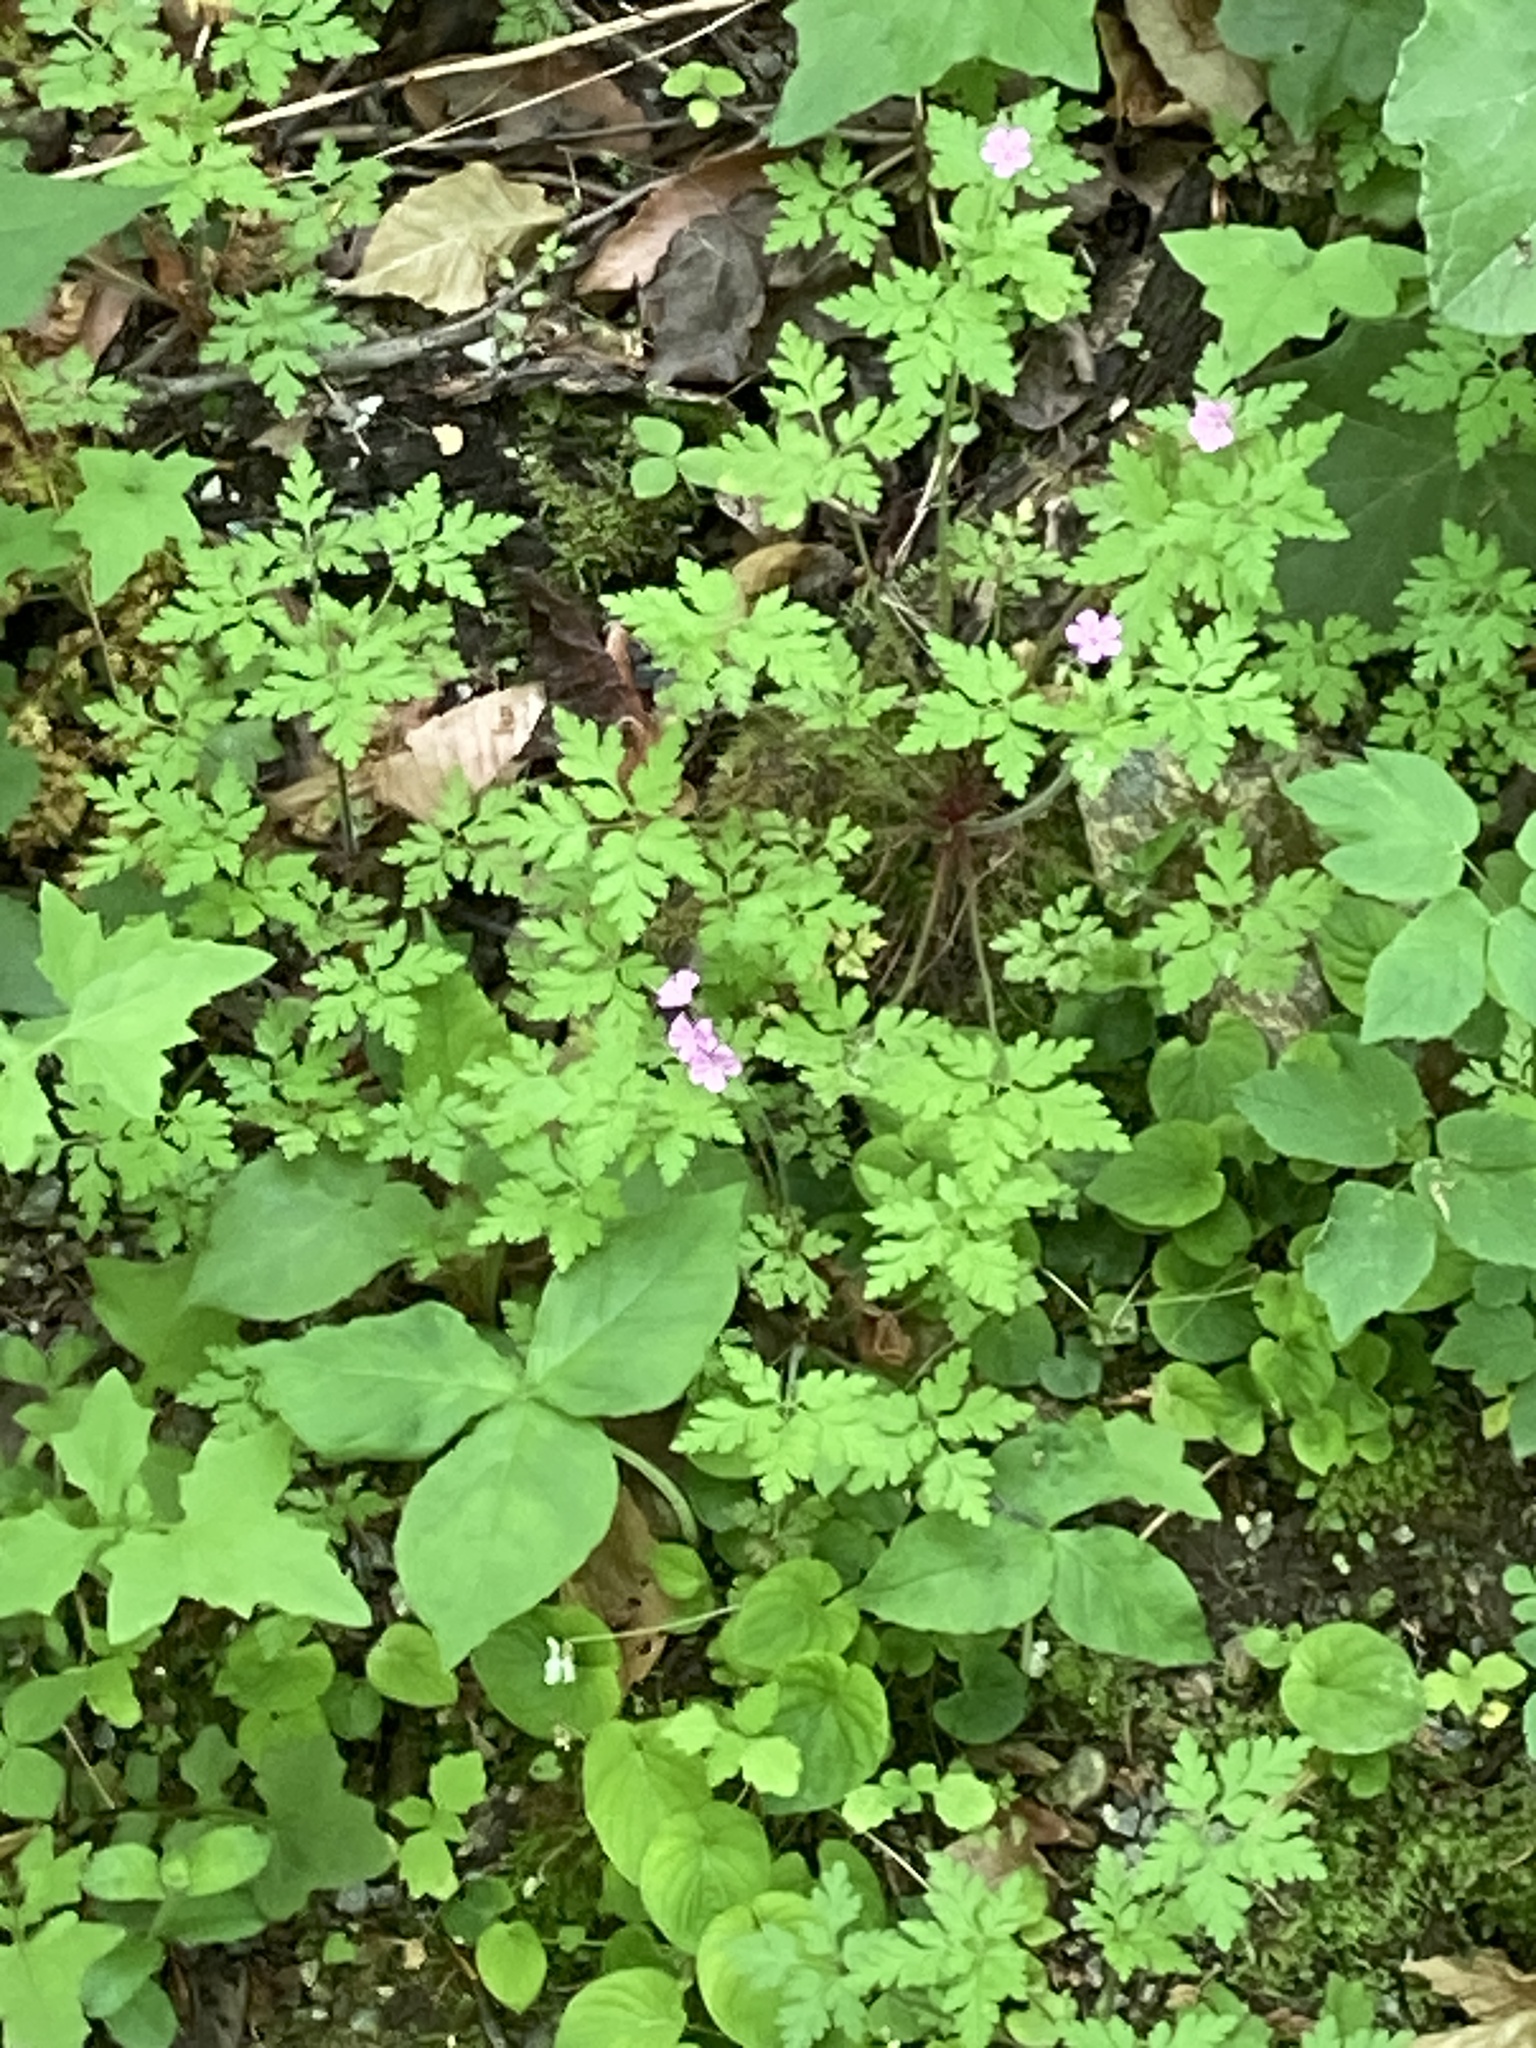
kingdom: Plantae
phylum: Tracheophyta
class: Magnoliopsida
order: Geraniales
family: Geraniaceae
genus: Geranium
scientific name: Geranium robertianum
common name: Herb-robert
